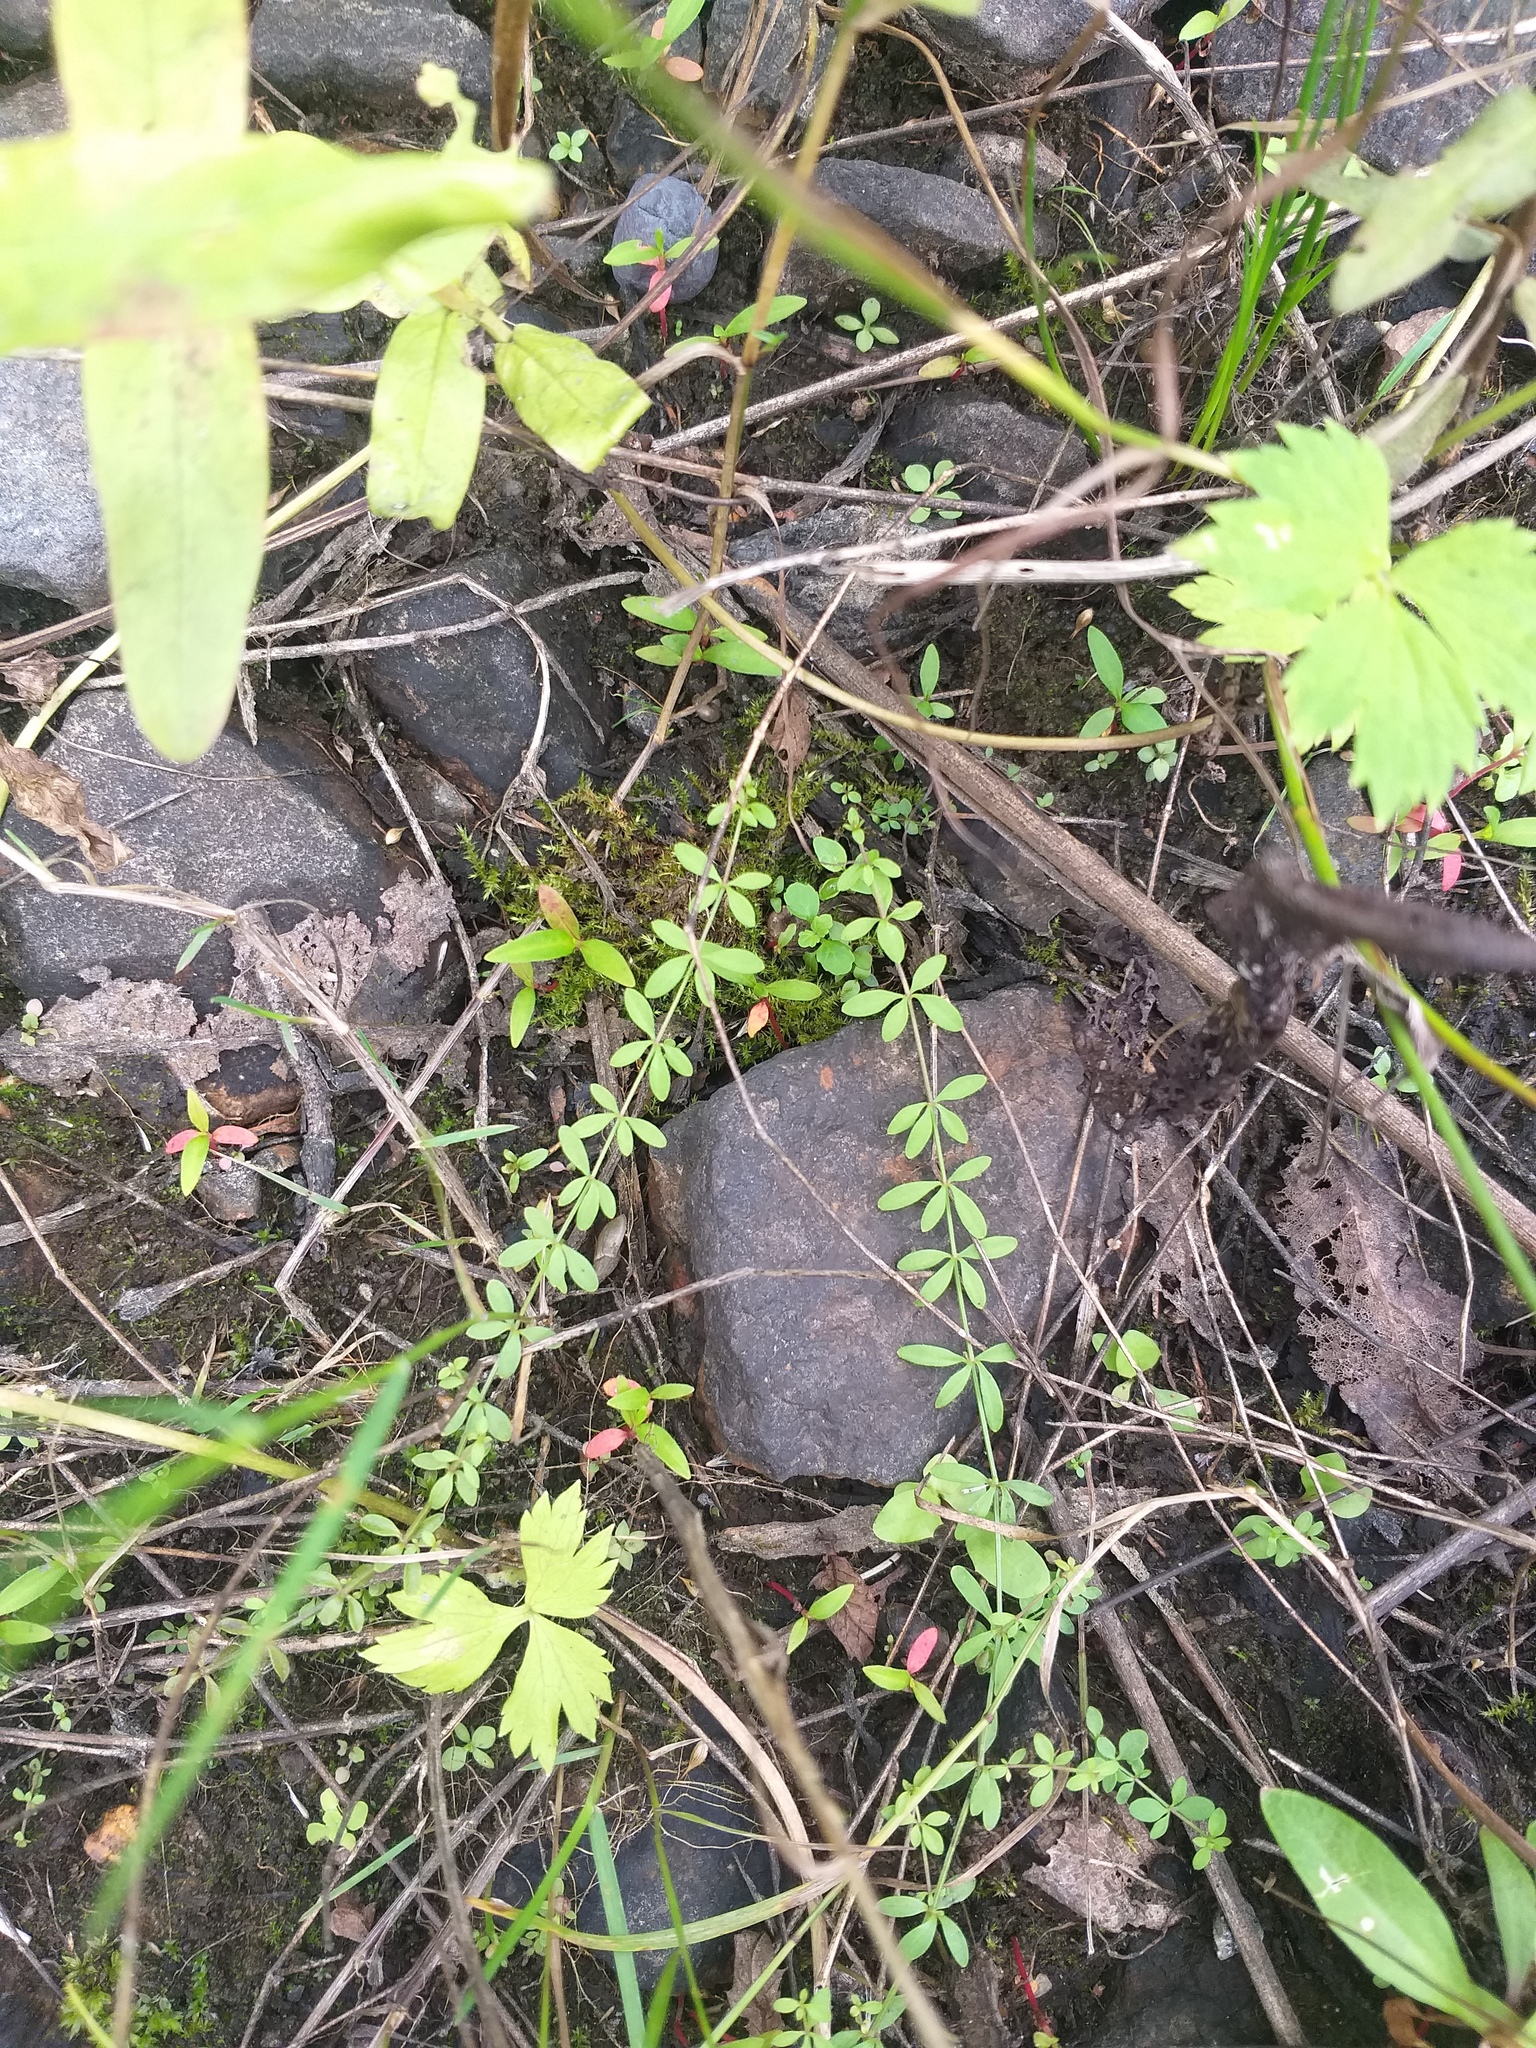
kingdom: Plantae
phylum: Tracheophyta
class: Magnoliopsida
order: Gentianales
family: Rubiaceae
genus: Galium
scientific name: Galium palustre
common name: Common marsh-bedstraw
